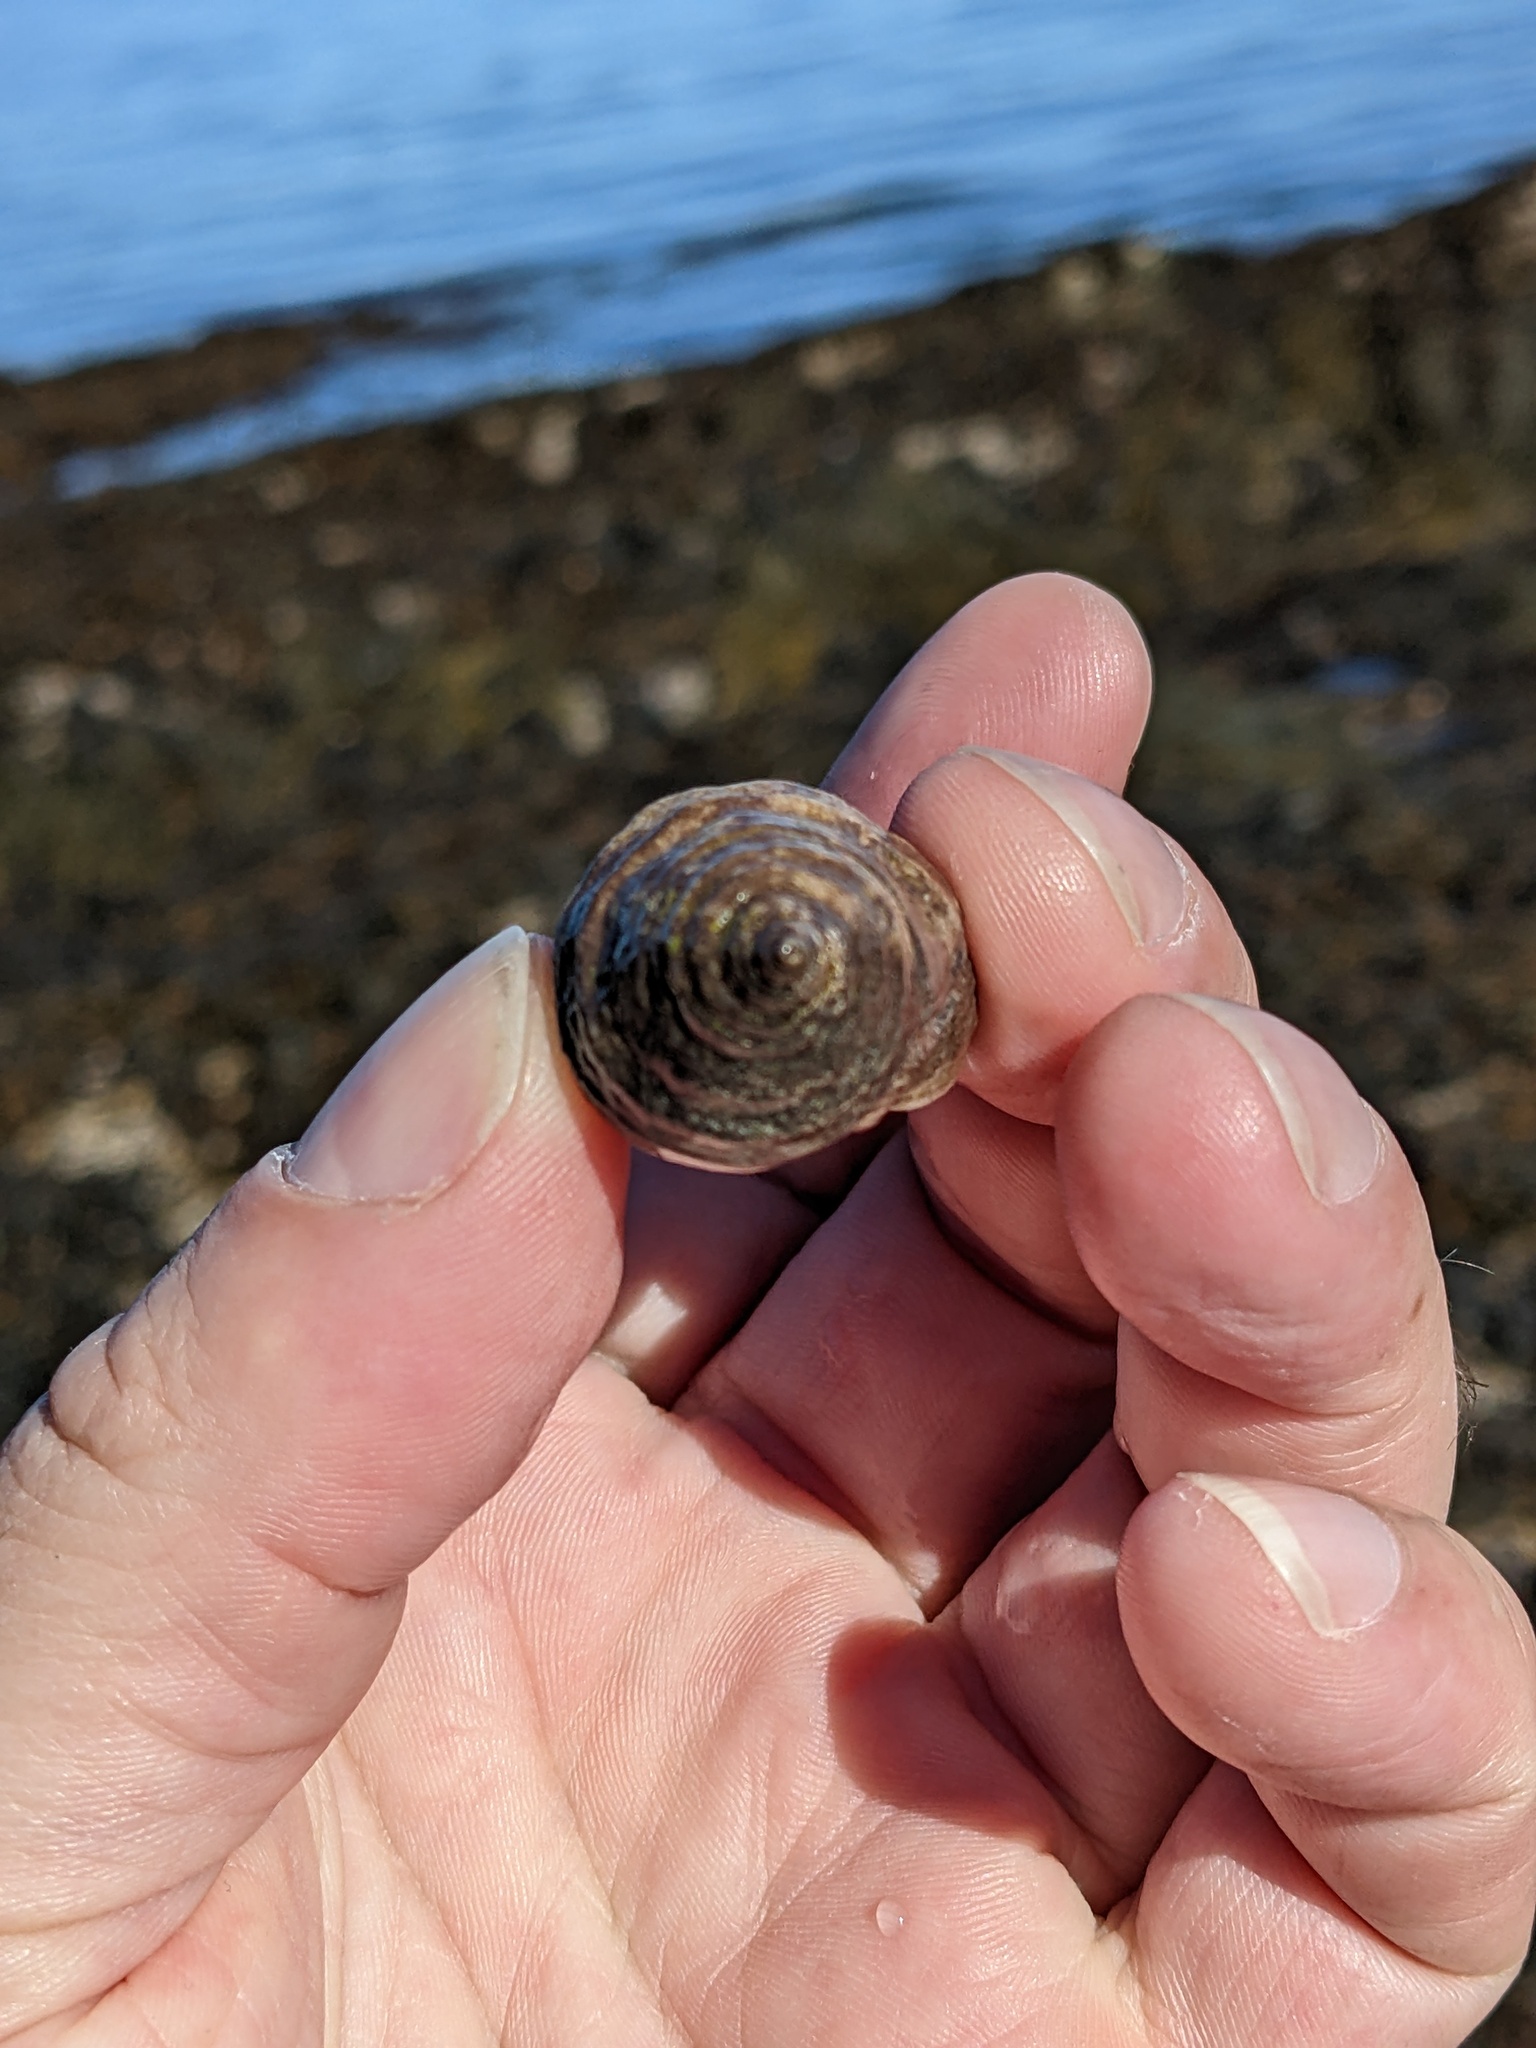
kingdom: Animalia
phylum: Mollusca
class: Gastropoda
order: Neogastropoda
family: Muricidae
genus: Nucella
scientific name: Nucella lapillus
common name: Dog whelk
